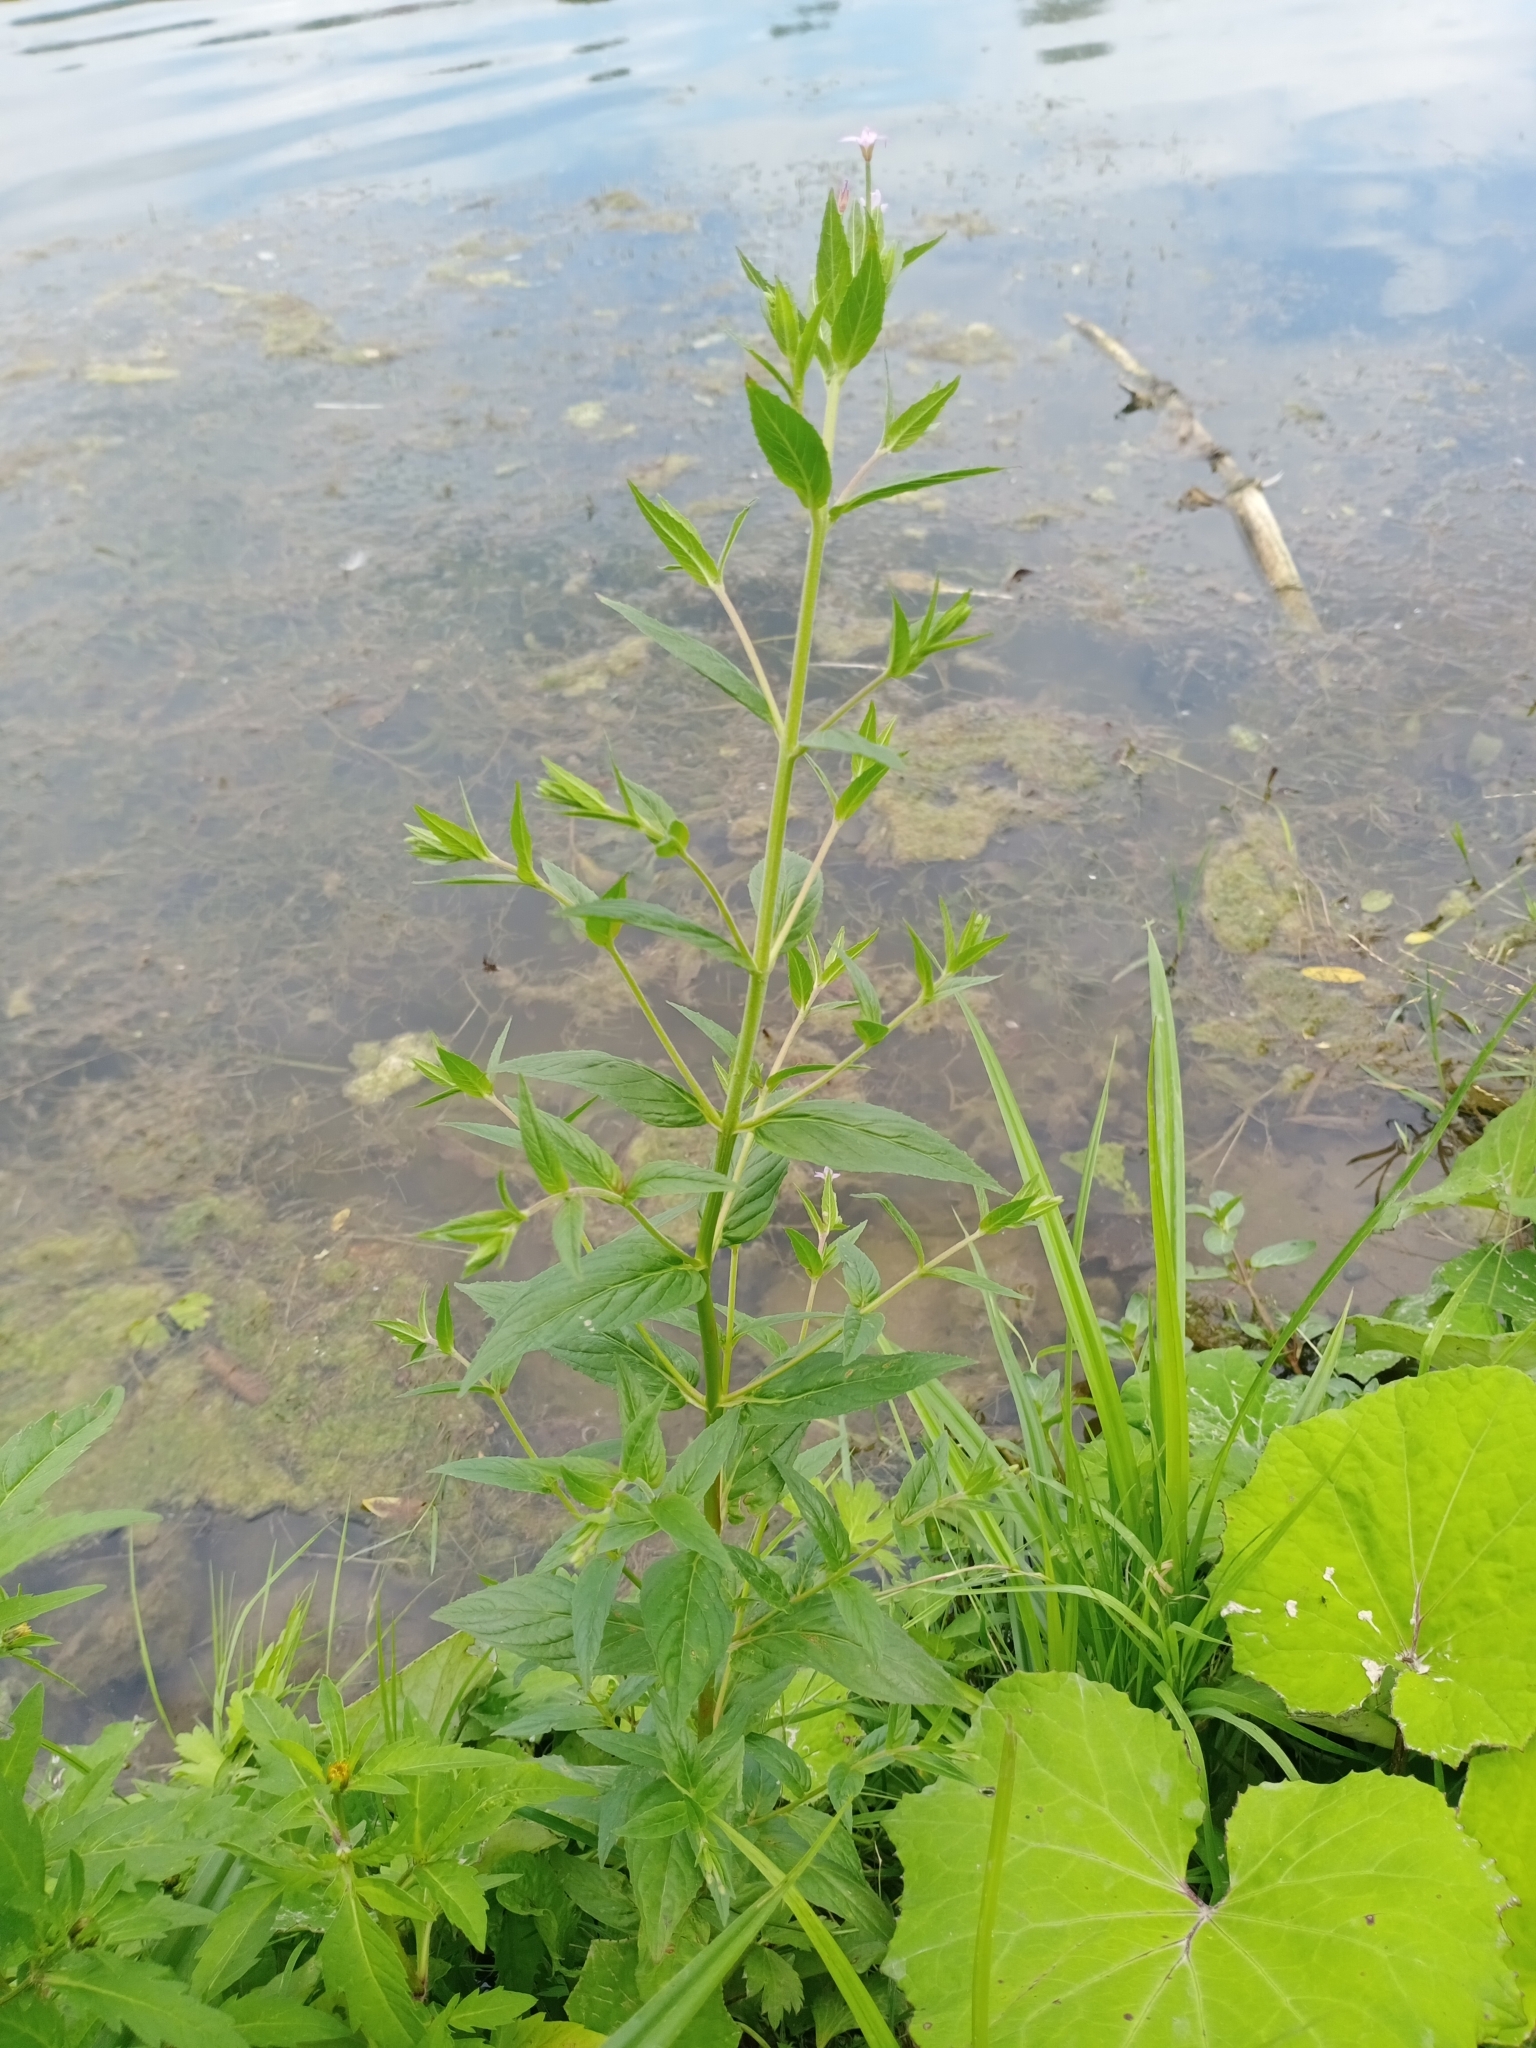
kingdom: Plantae
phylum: Tracheophyta
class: Magnoliopsida
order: Myrtales
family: Onagraceae
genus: Epilobium
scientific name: Epilobium ciliatum
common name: American willowherb
